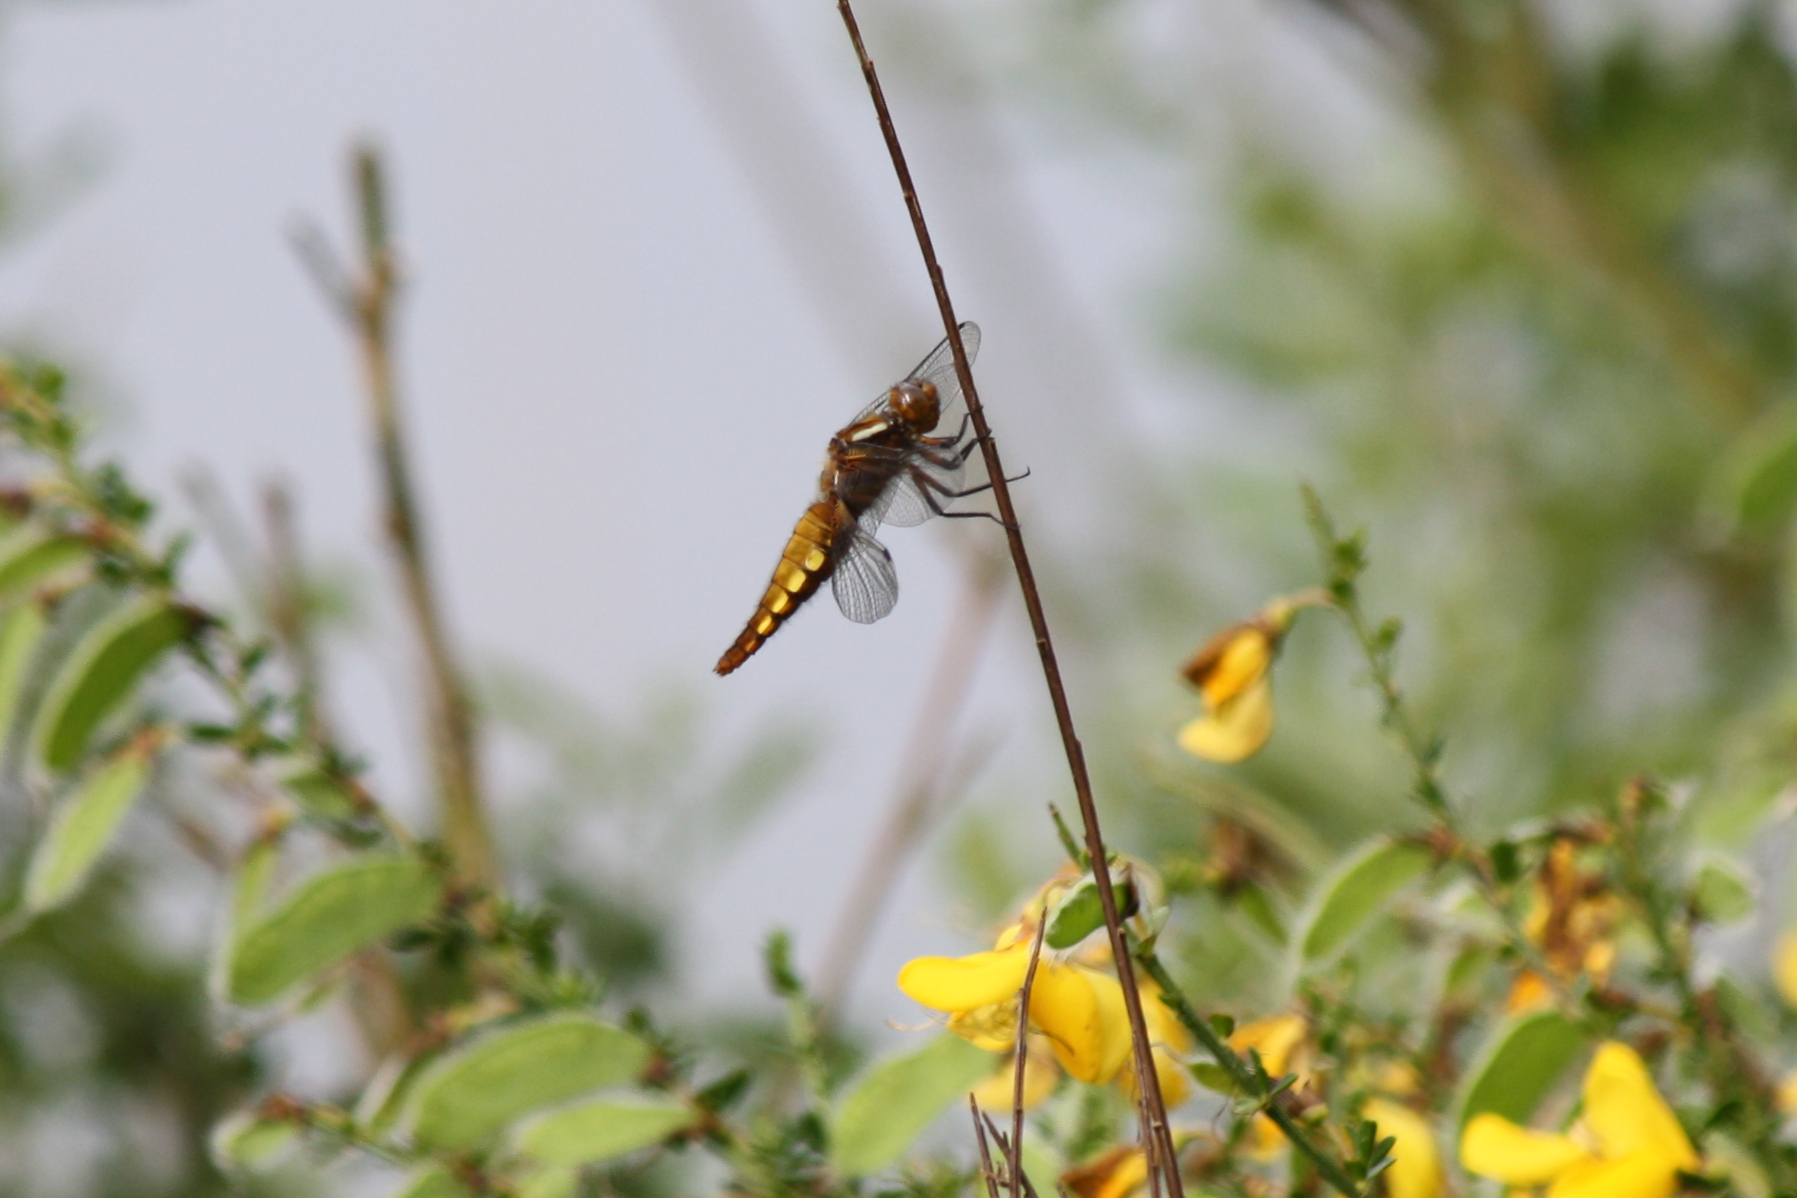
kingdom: Animalia
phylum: Arthropoda
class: Insecta
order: Odonata
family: Libellulidae
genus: Libellula
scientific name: Libellula depressa
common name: Broad-bodied chaser
